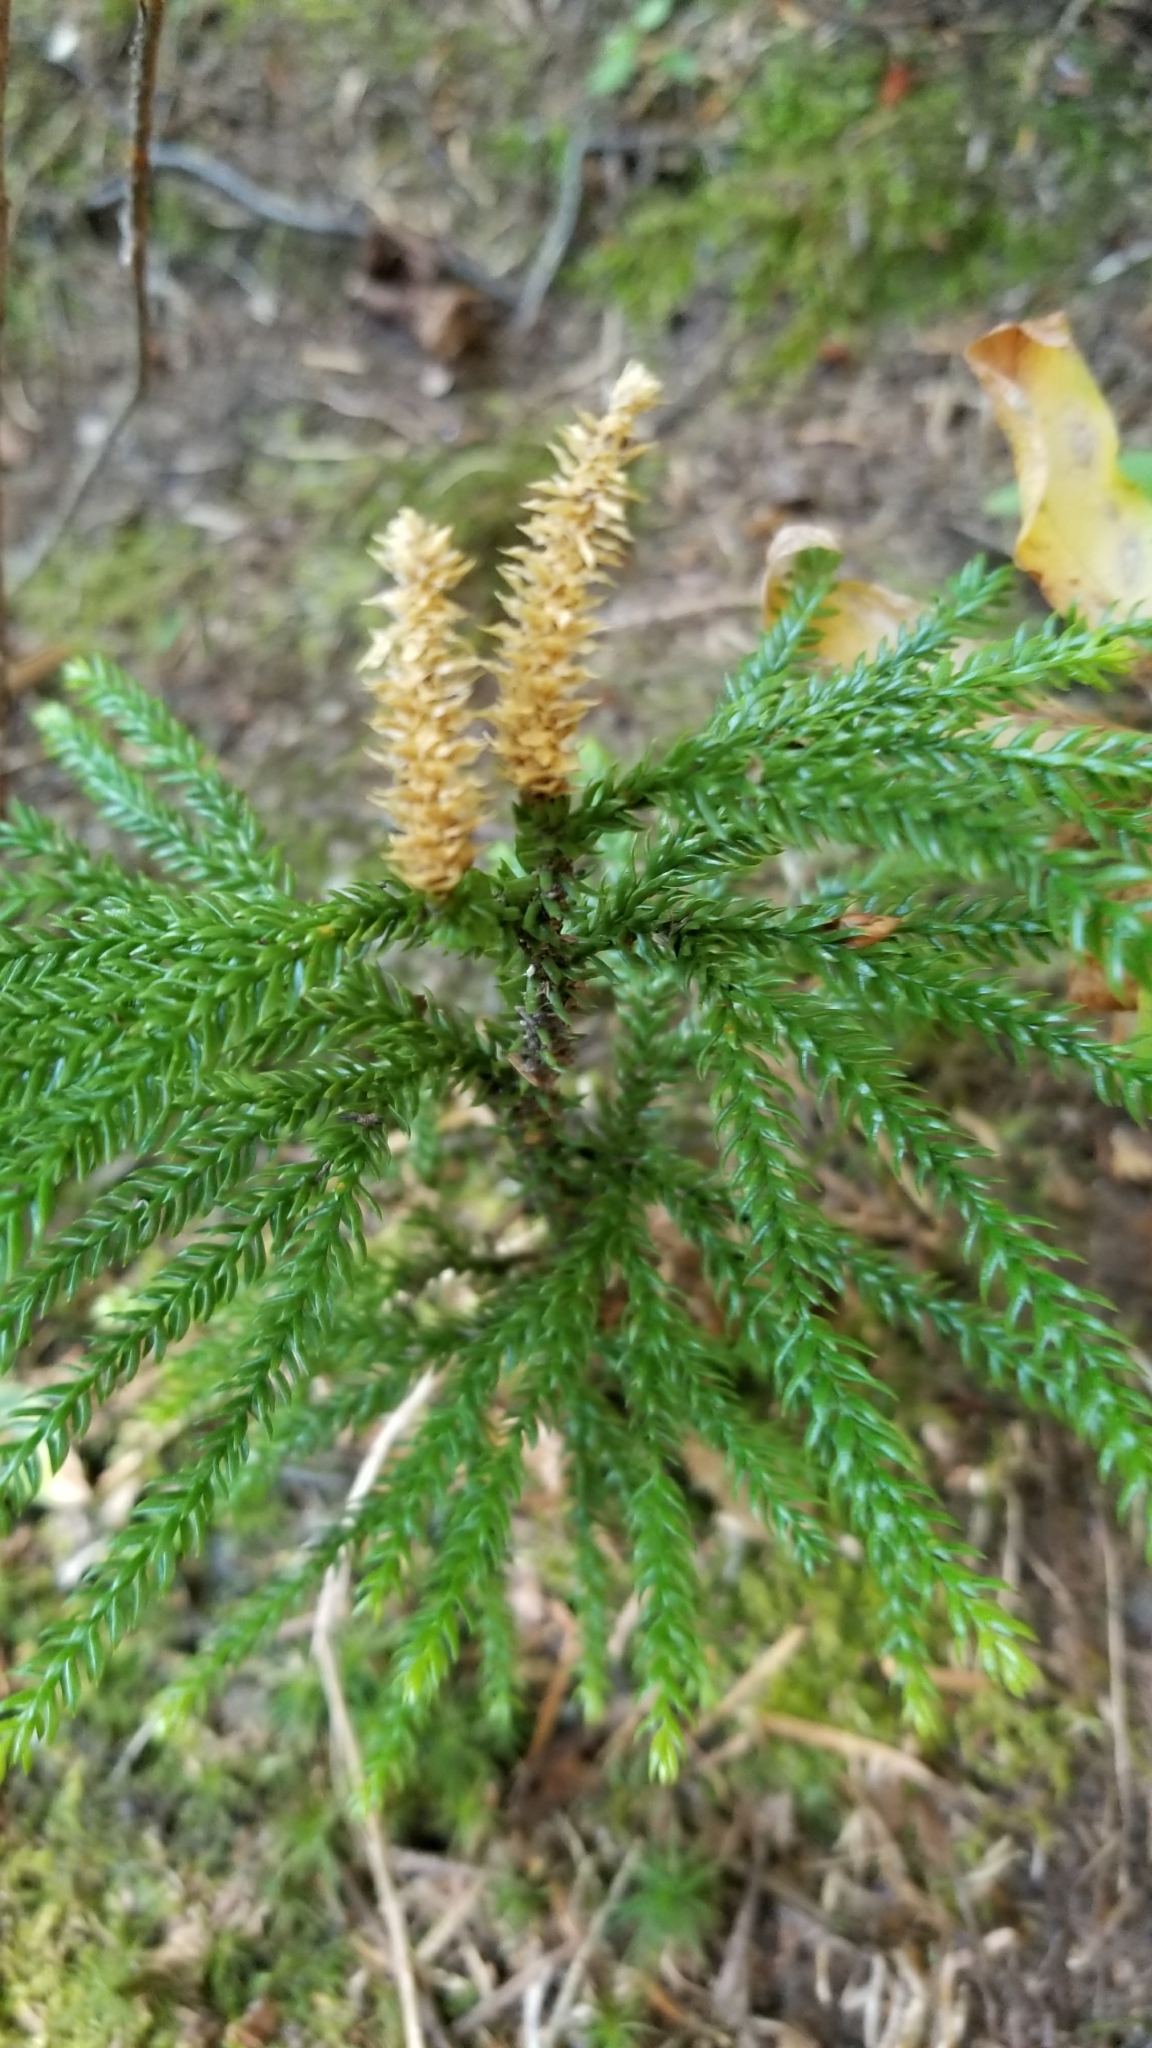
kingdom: Plantae
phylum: Tracheophyta
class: Lycopodiopsida
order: Lycopodiales
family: Lycopodiaceae
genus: Dendrolycopodium
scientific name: Dendrolycopodium obscurum
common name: Common ground-pine
